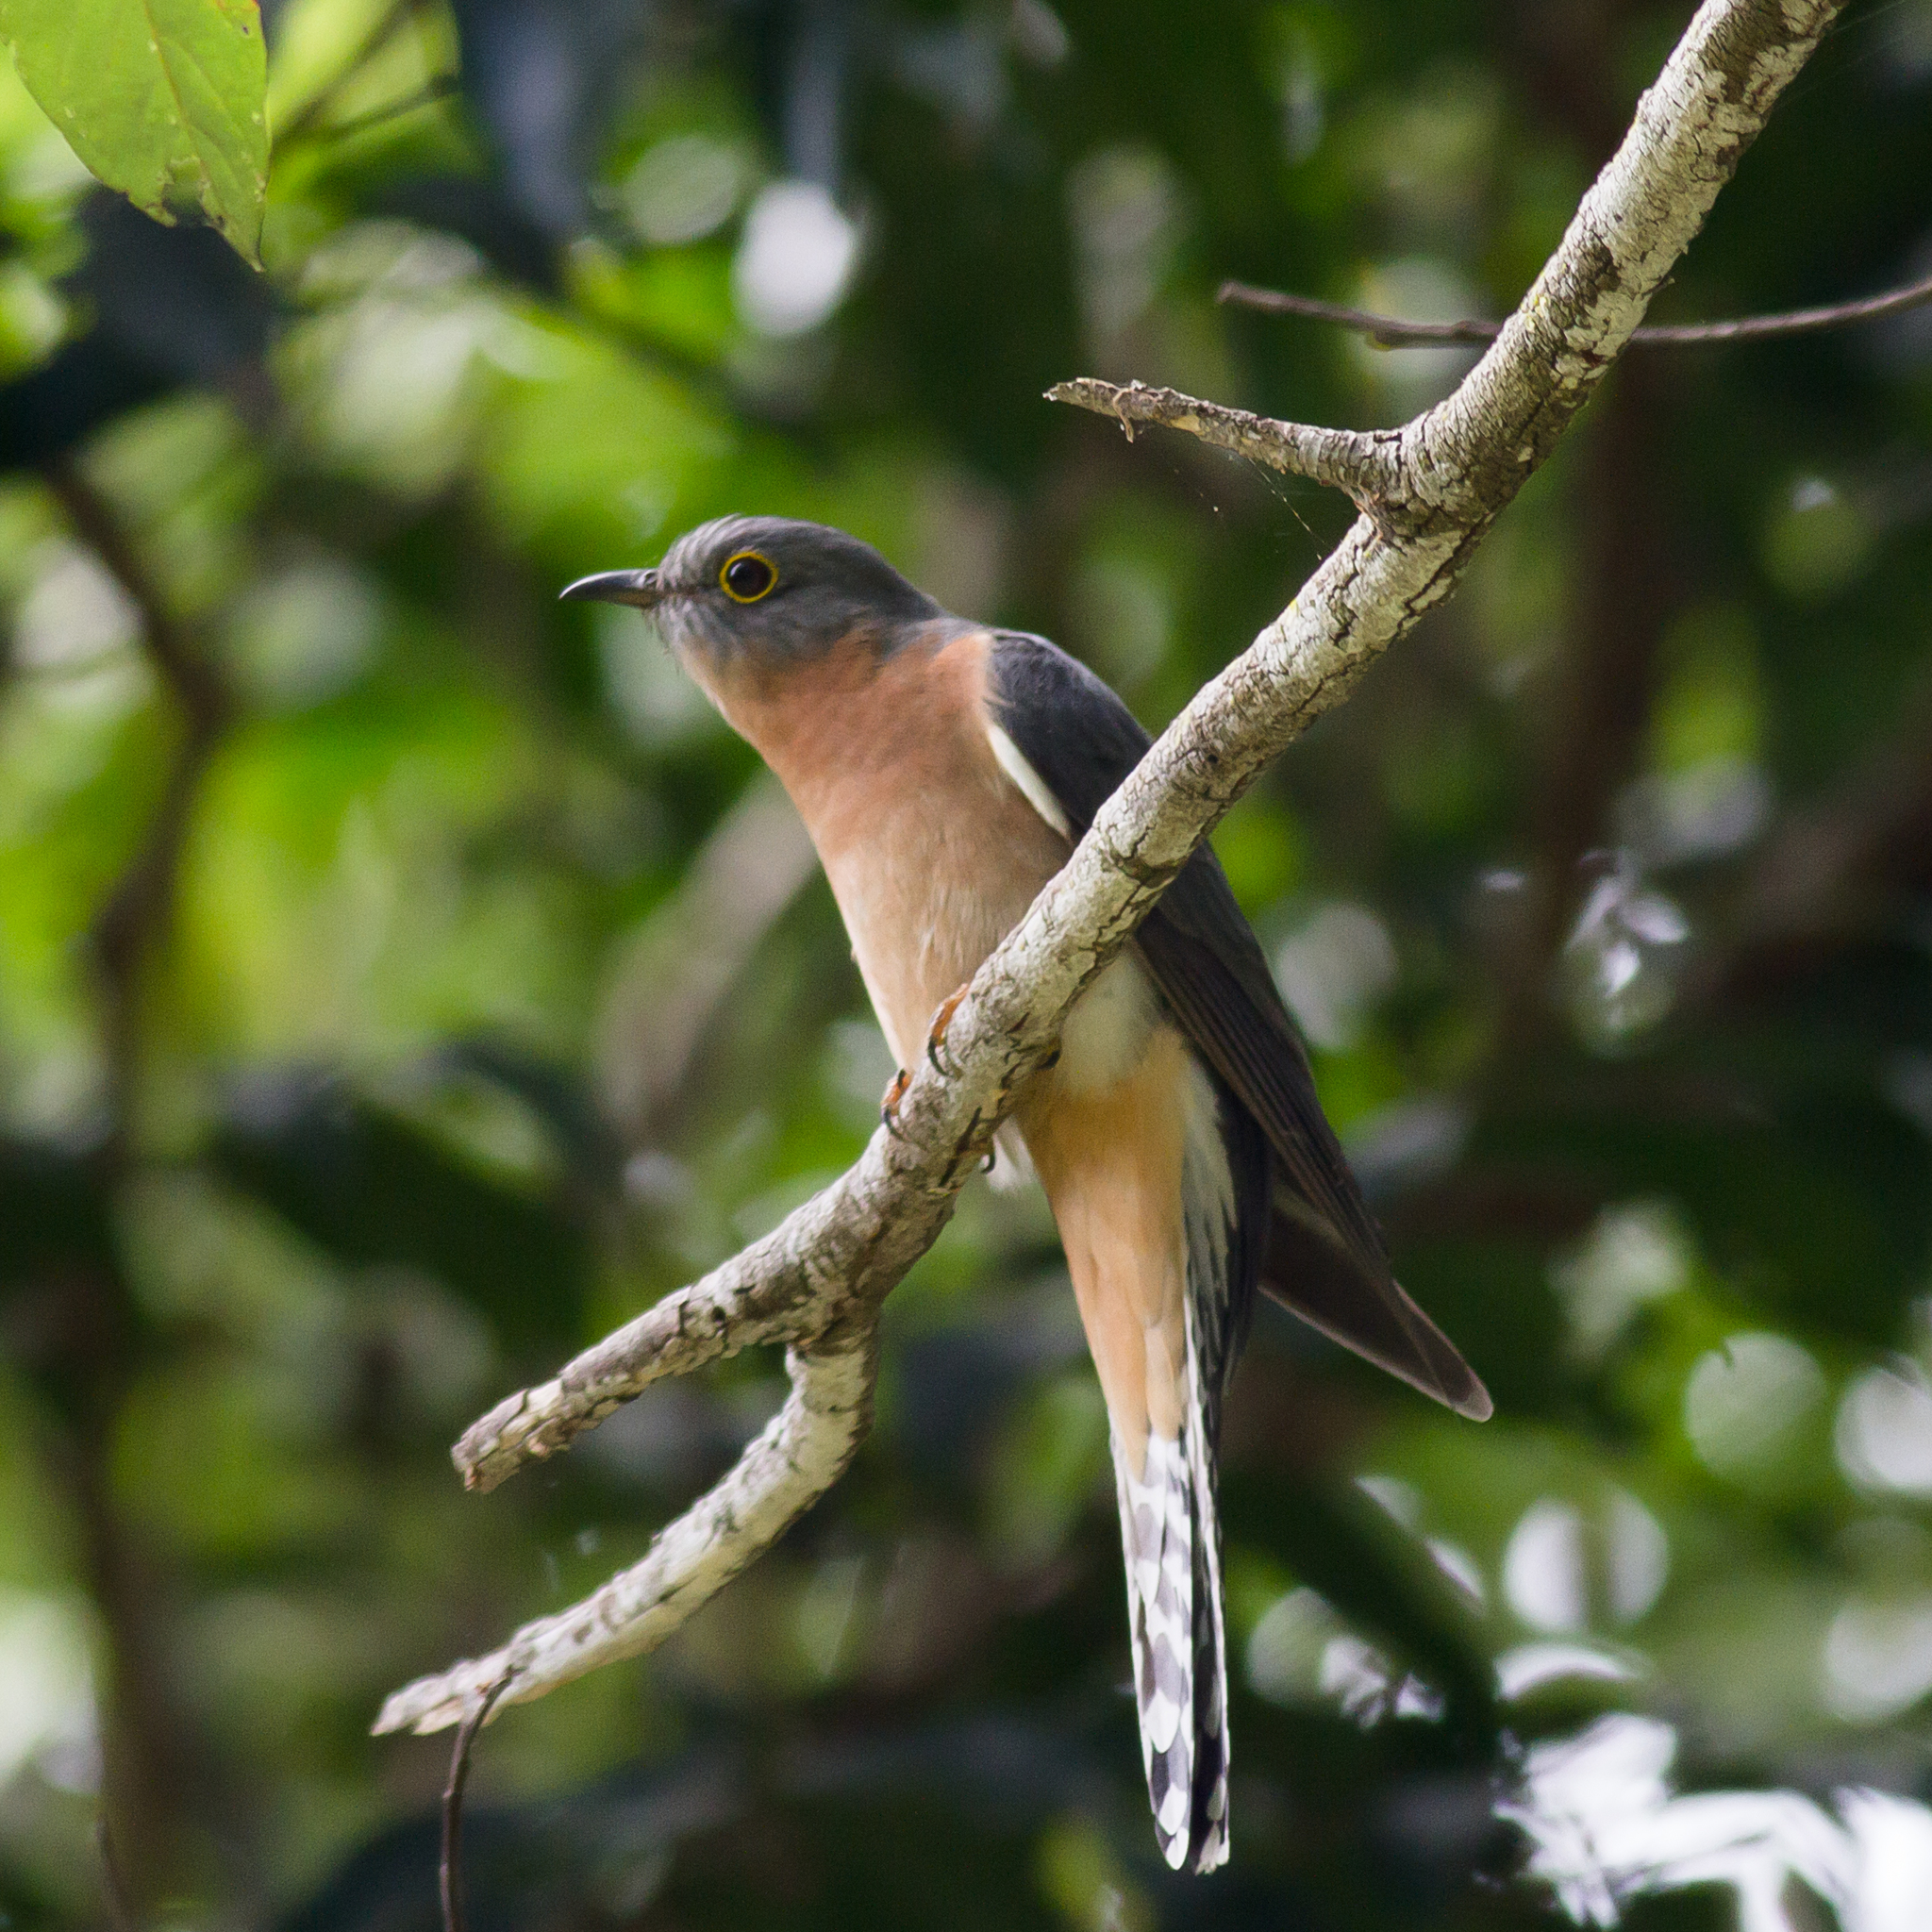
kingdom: Animalia
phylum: Chordata
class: Aves
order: Cuculiformes
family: Cuculidae
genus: Cacomantis
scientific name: Cacomantis flabelliformis
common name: Fan-tailed cuckoo
